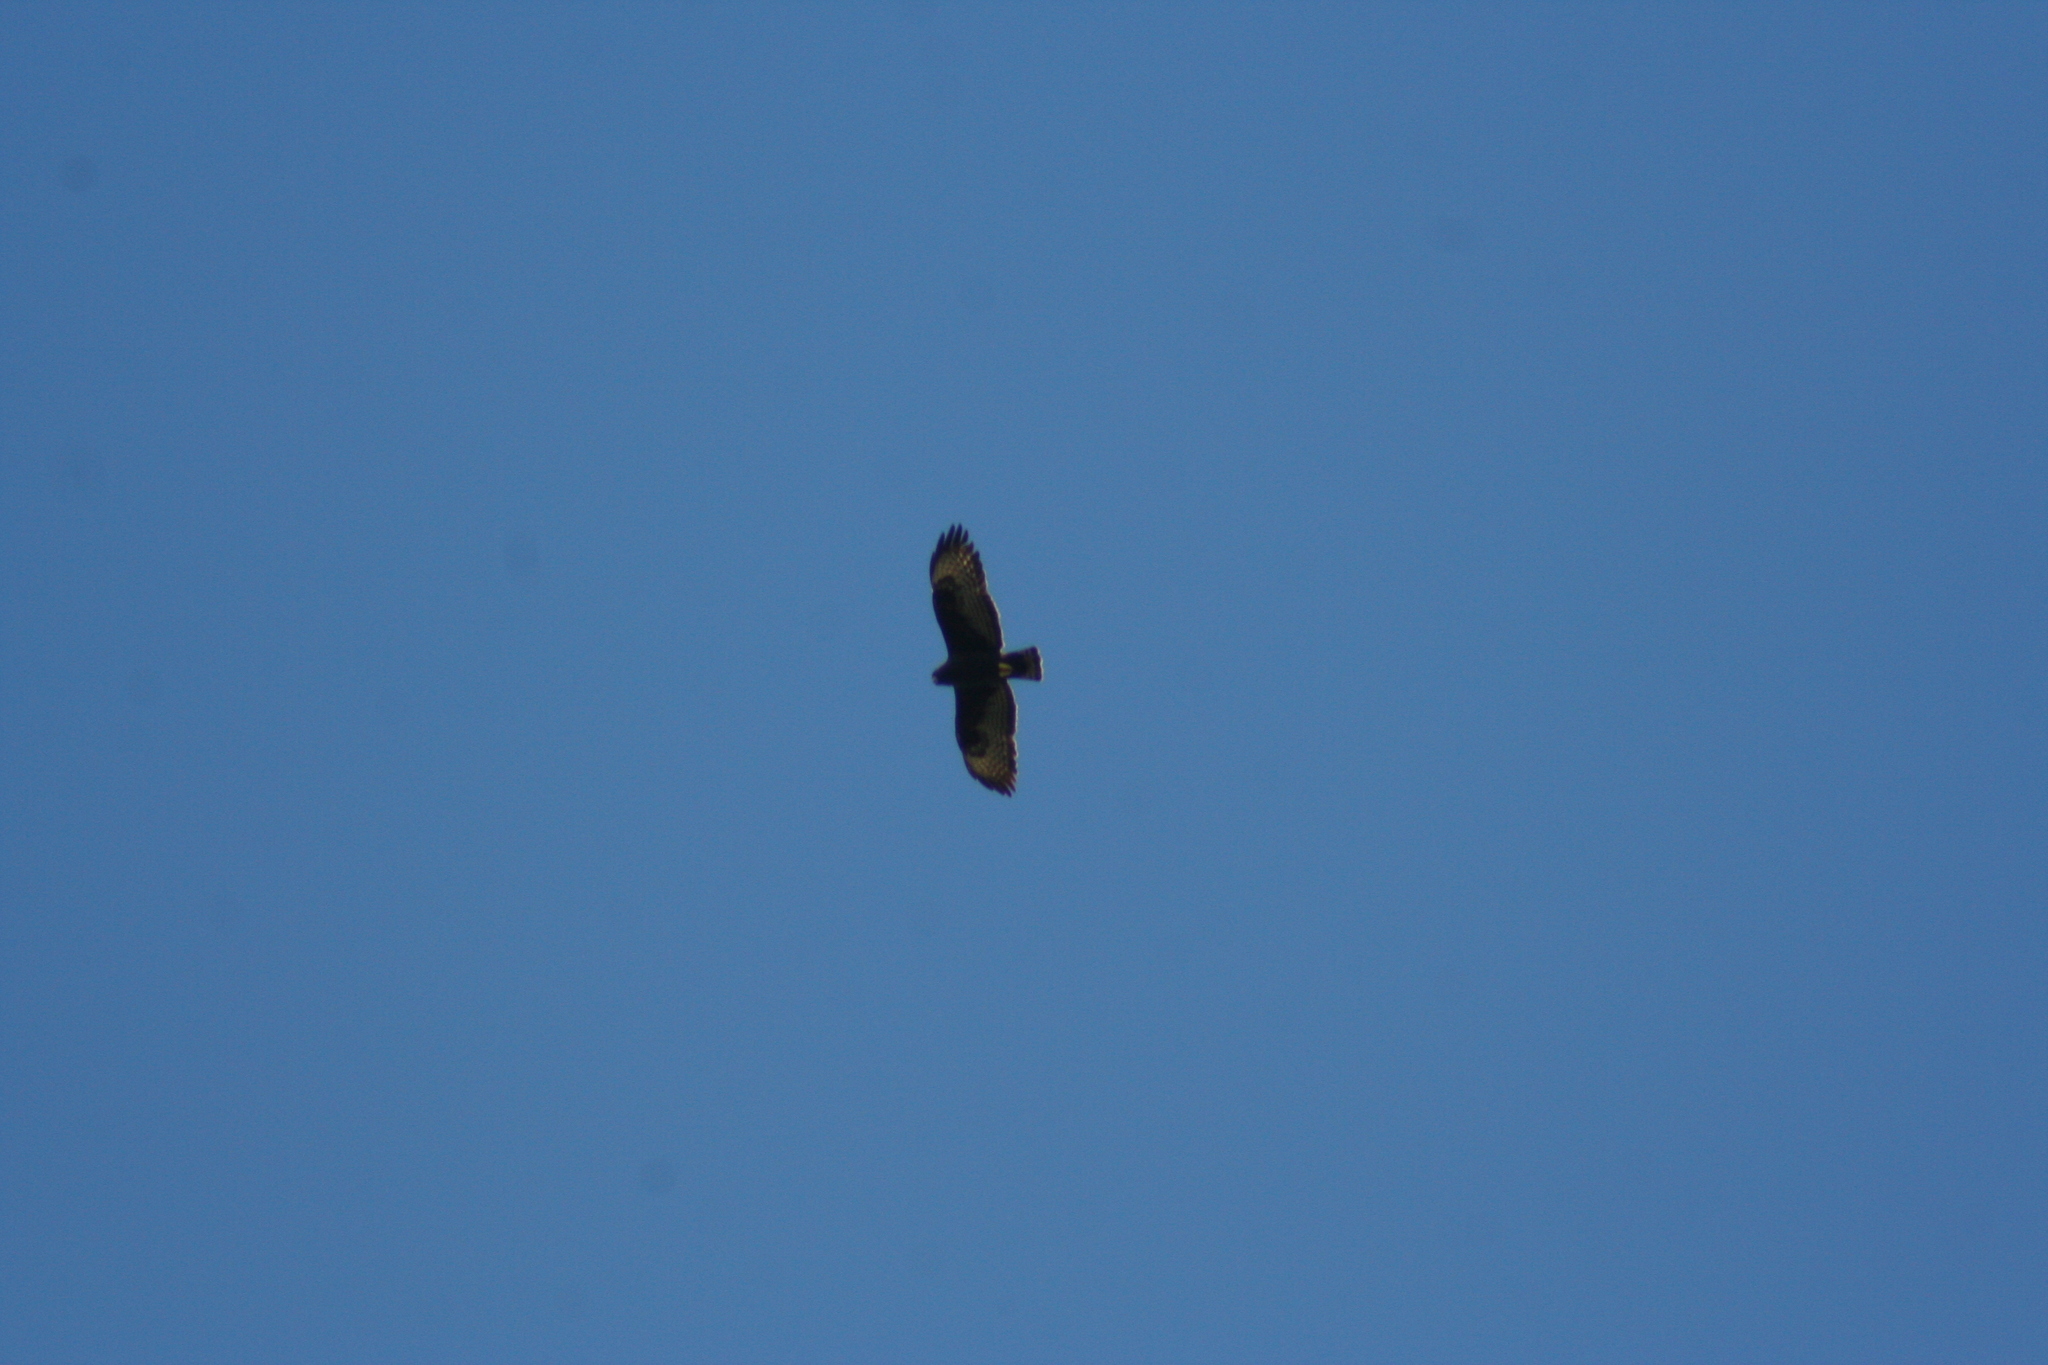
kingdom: Animalia
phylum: Chordata
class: Aves
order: Accipitriformes
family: Accipitridae
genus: Buteo
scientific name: Buteo brachyurus
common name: Short-tailed hawk
